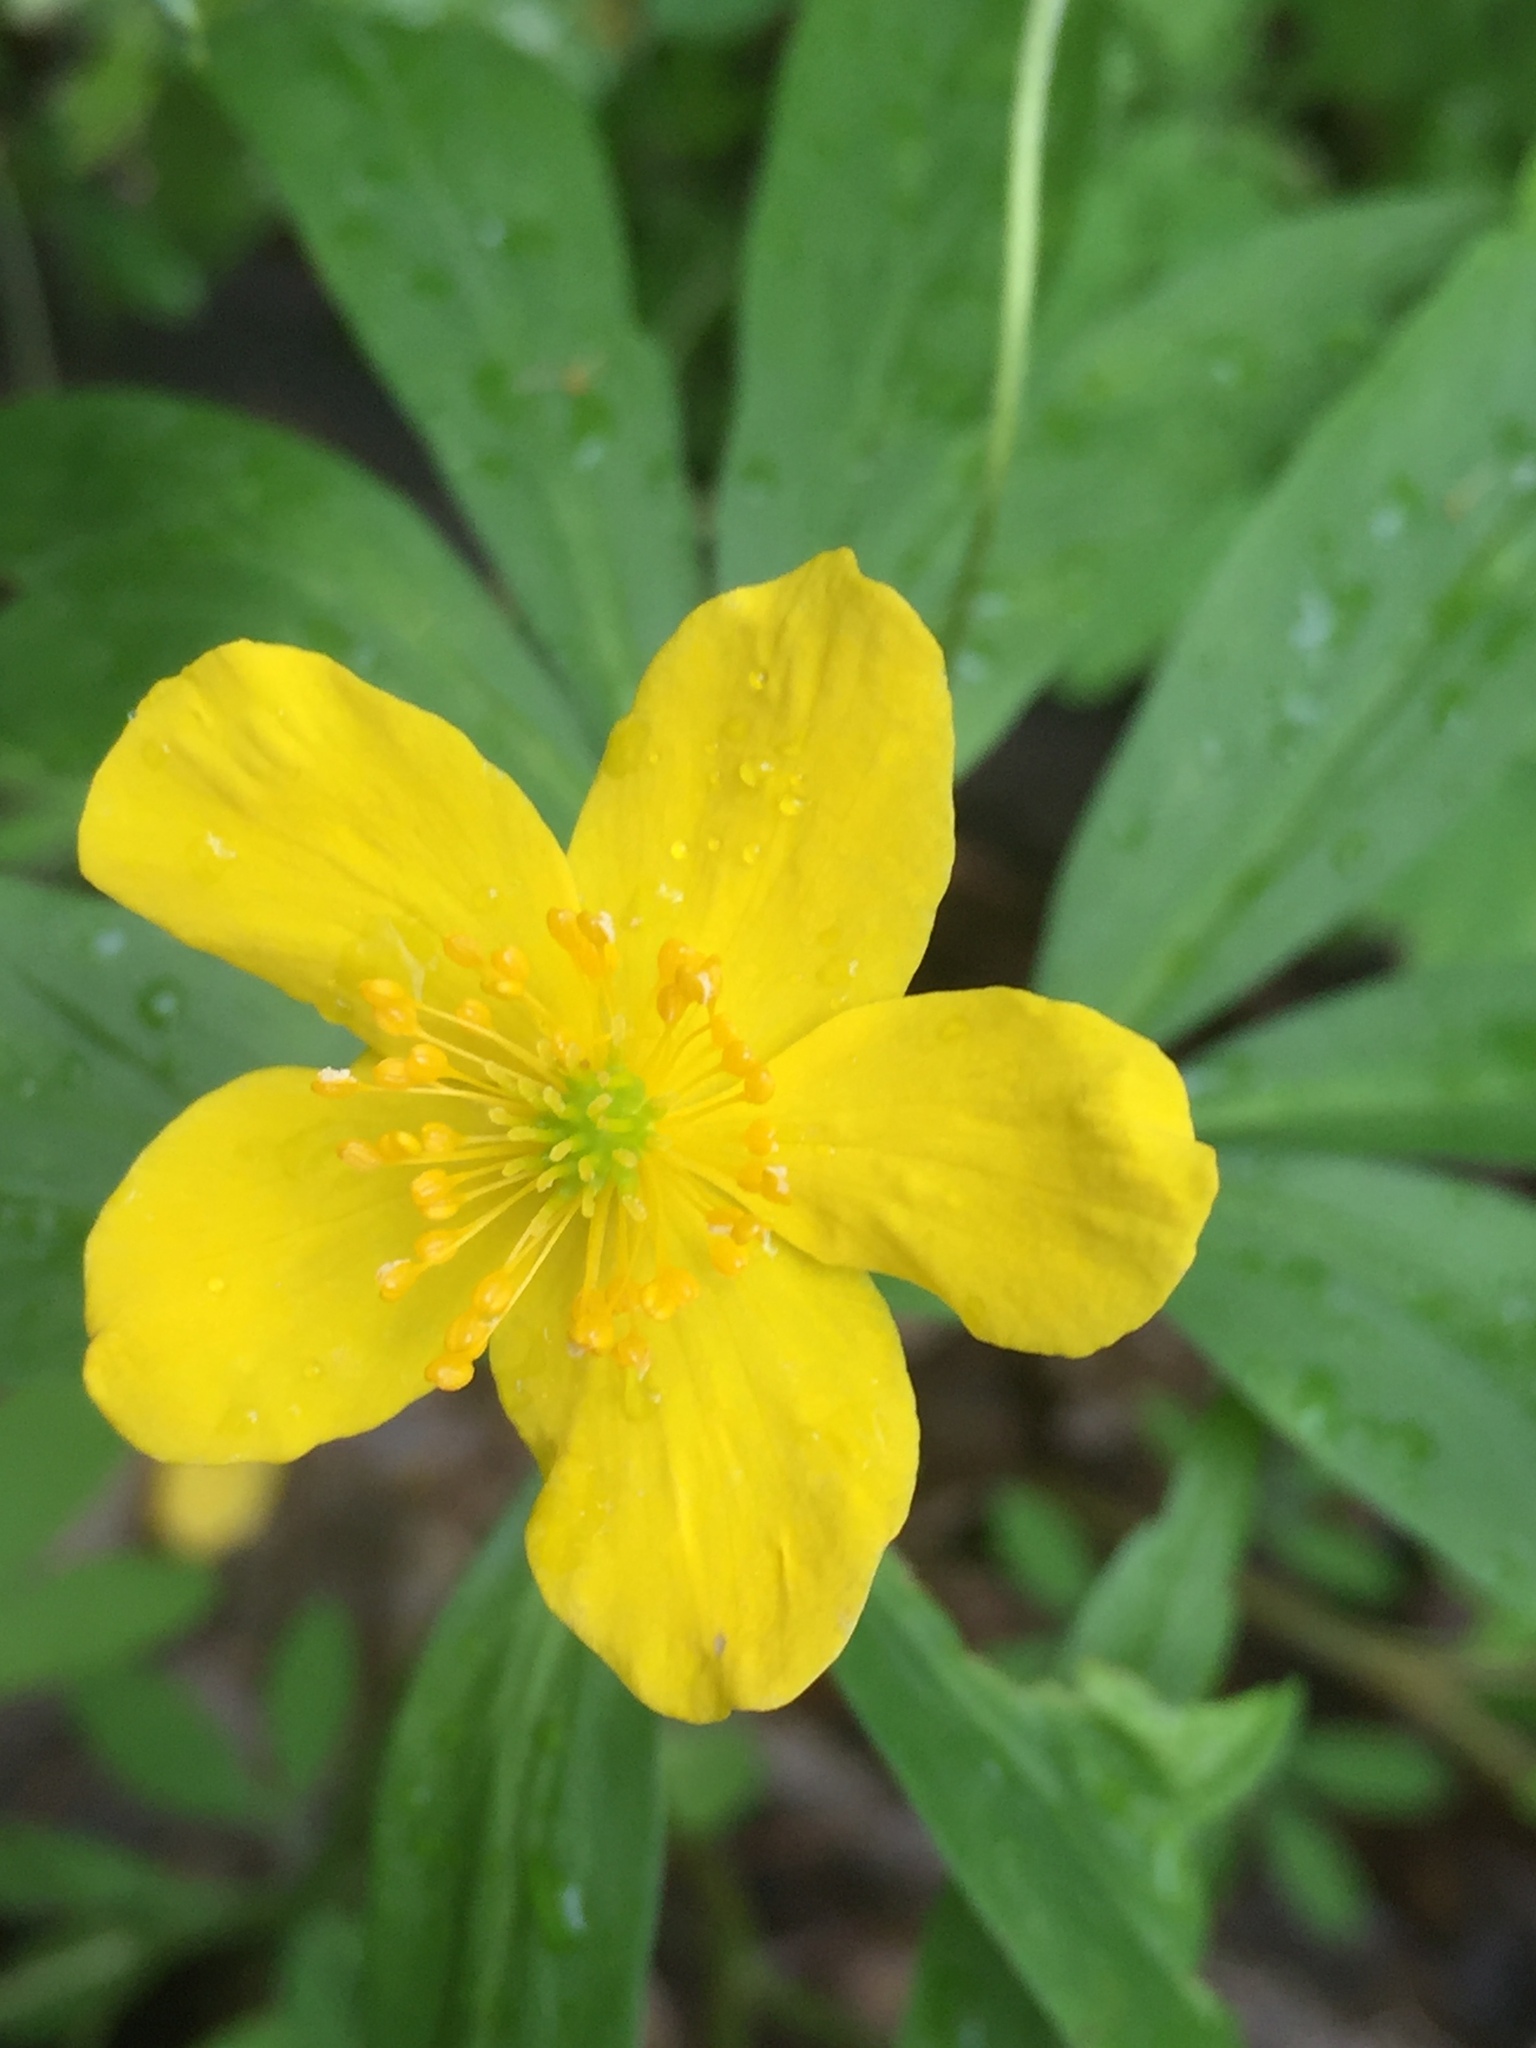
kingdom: Plantae
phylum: Tracheophyta
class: Magnoliopsida
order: Ranunculales
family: Ranunculaceae
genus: Anemone
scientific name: Anemone ranunculoides
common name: Yellow anemone
